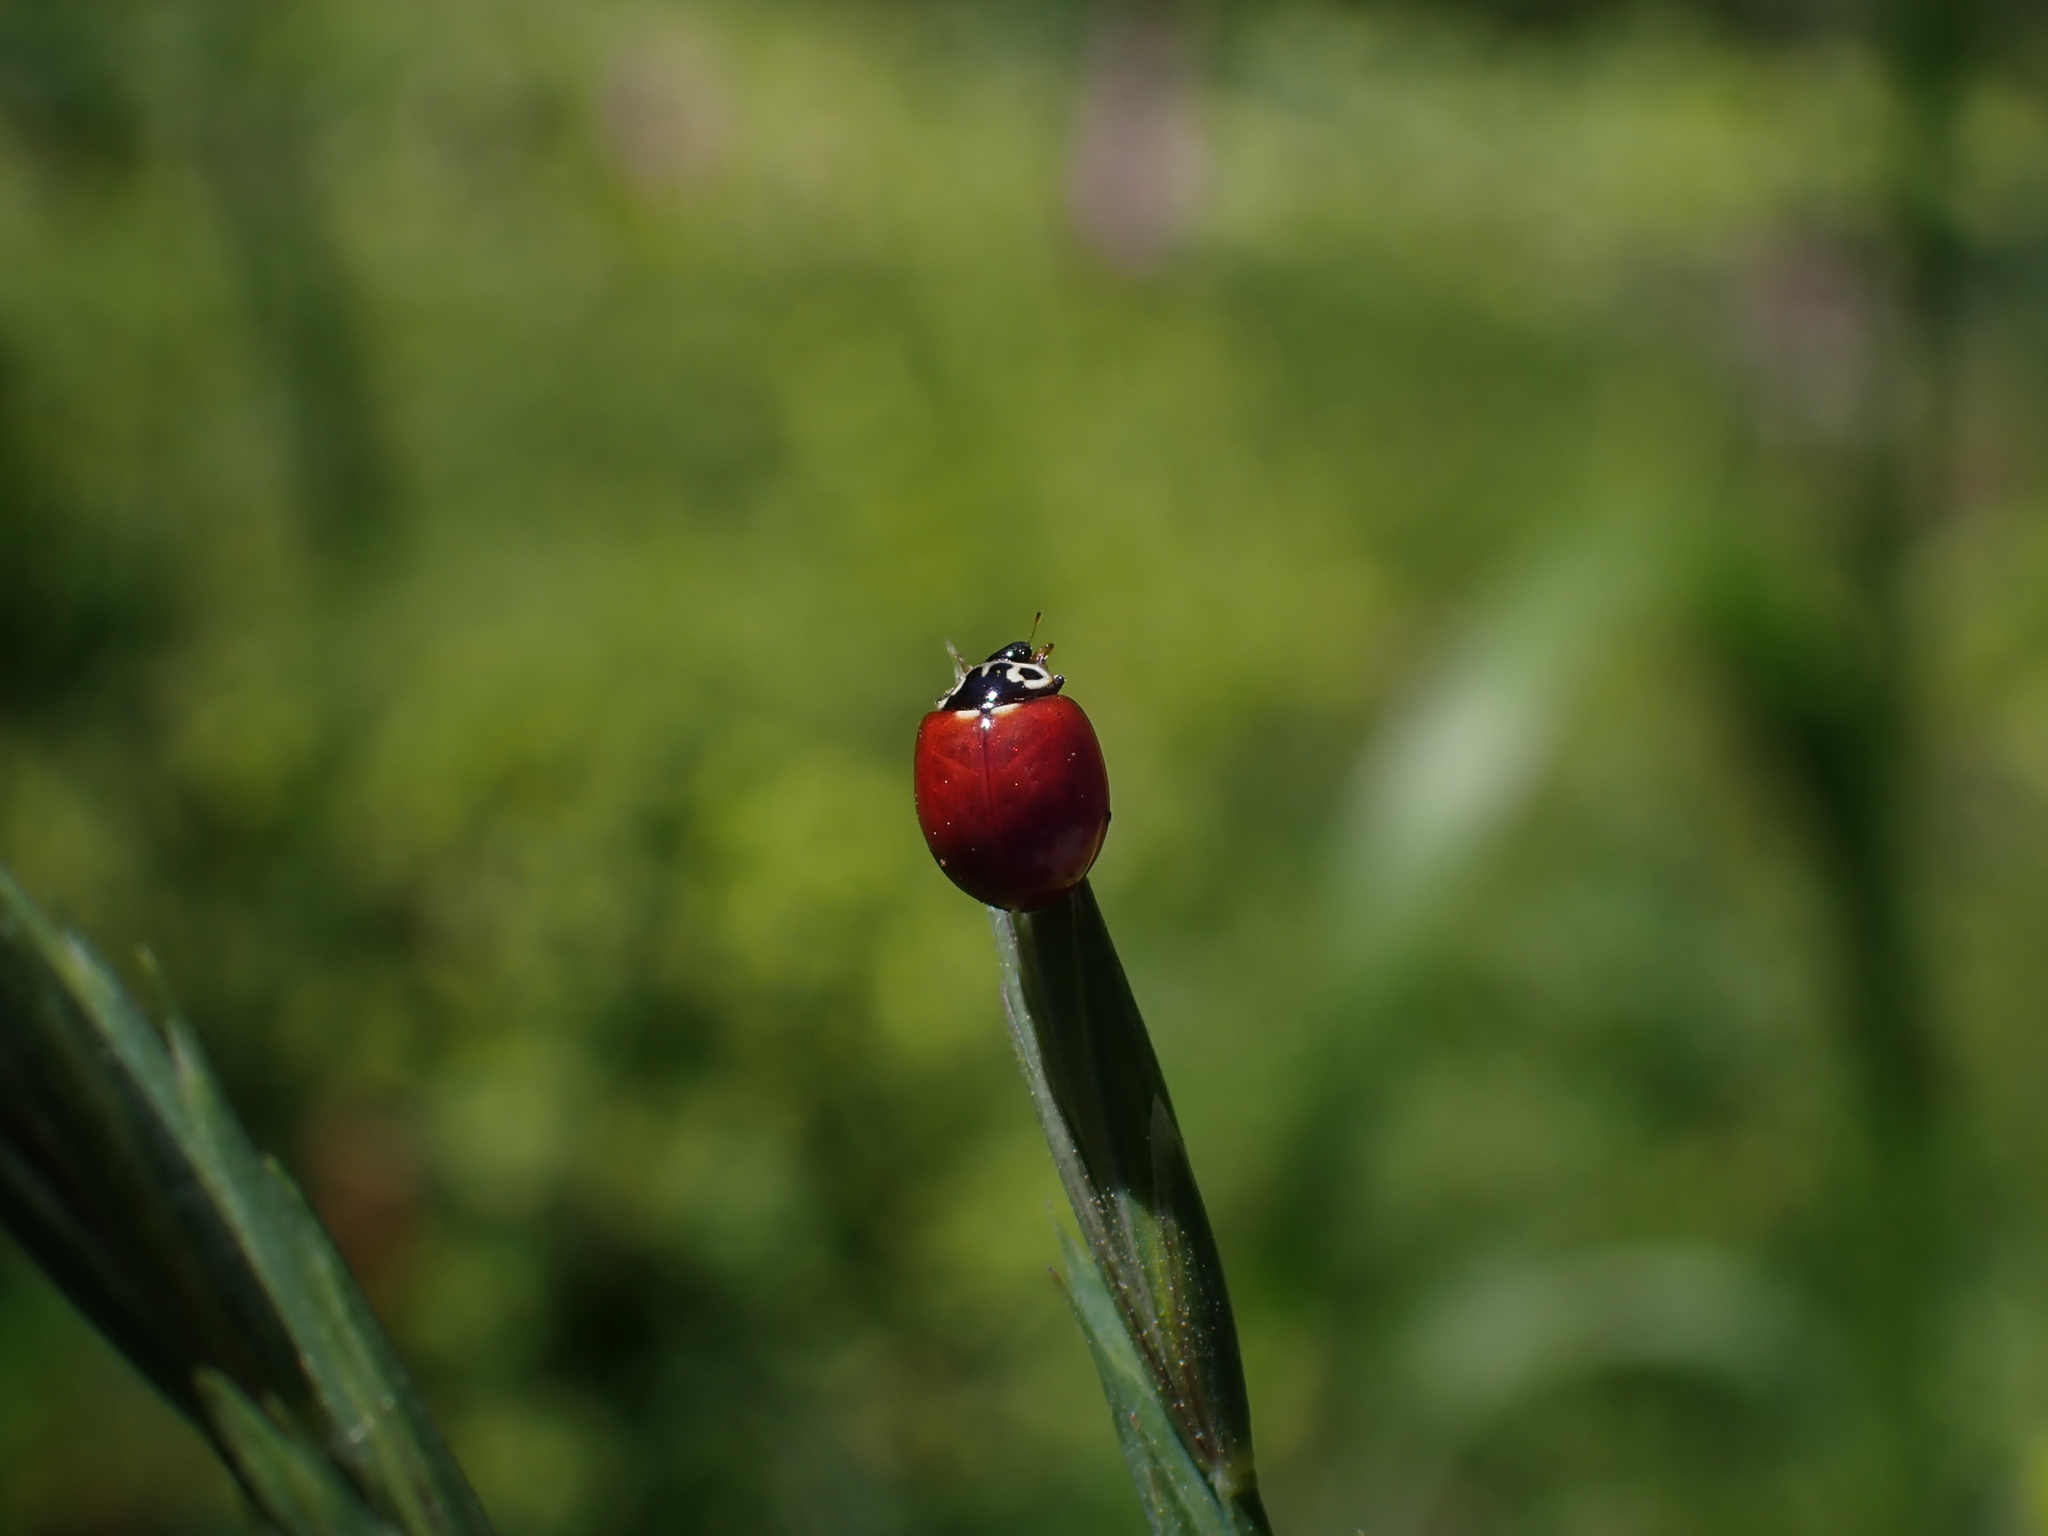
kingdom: Animalia
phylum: Arthropoda
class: Insecta
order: Coleoptera
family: Coccinellidae
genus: Cycloneda
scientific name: Cycloneda polita
